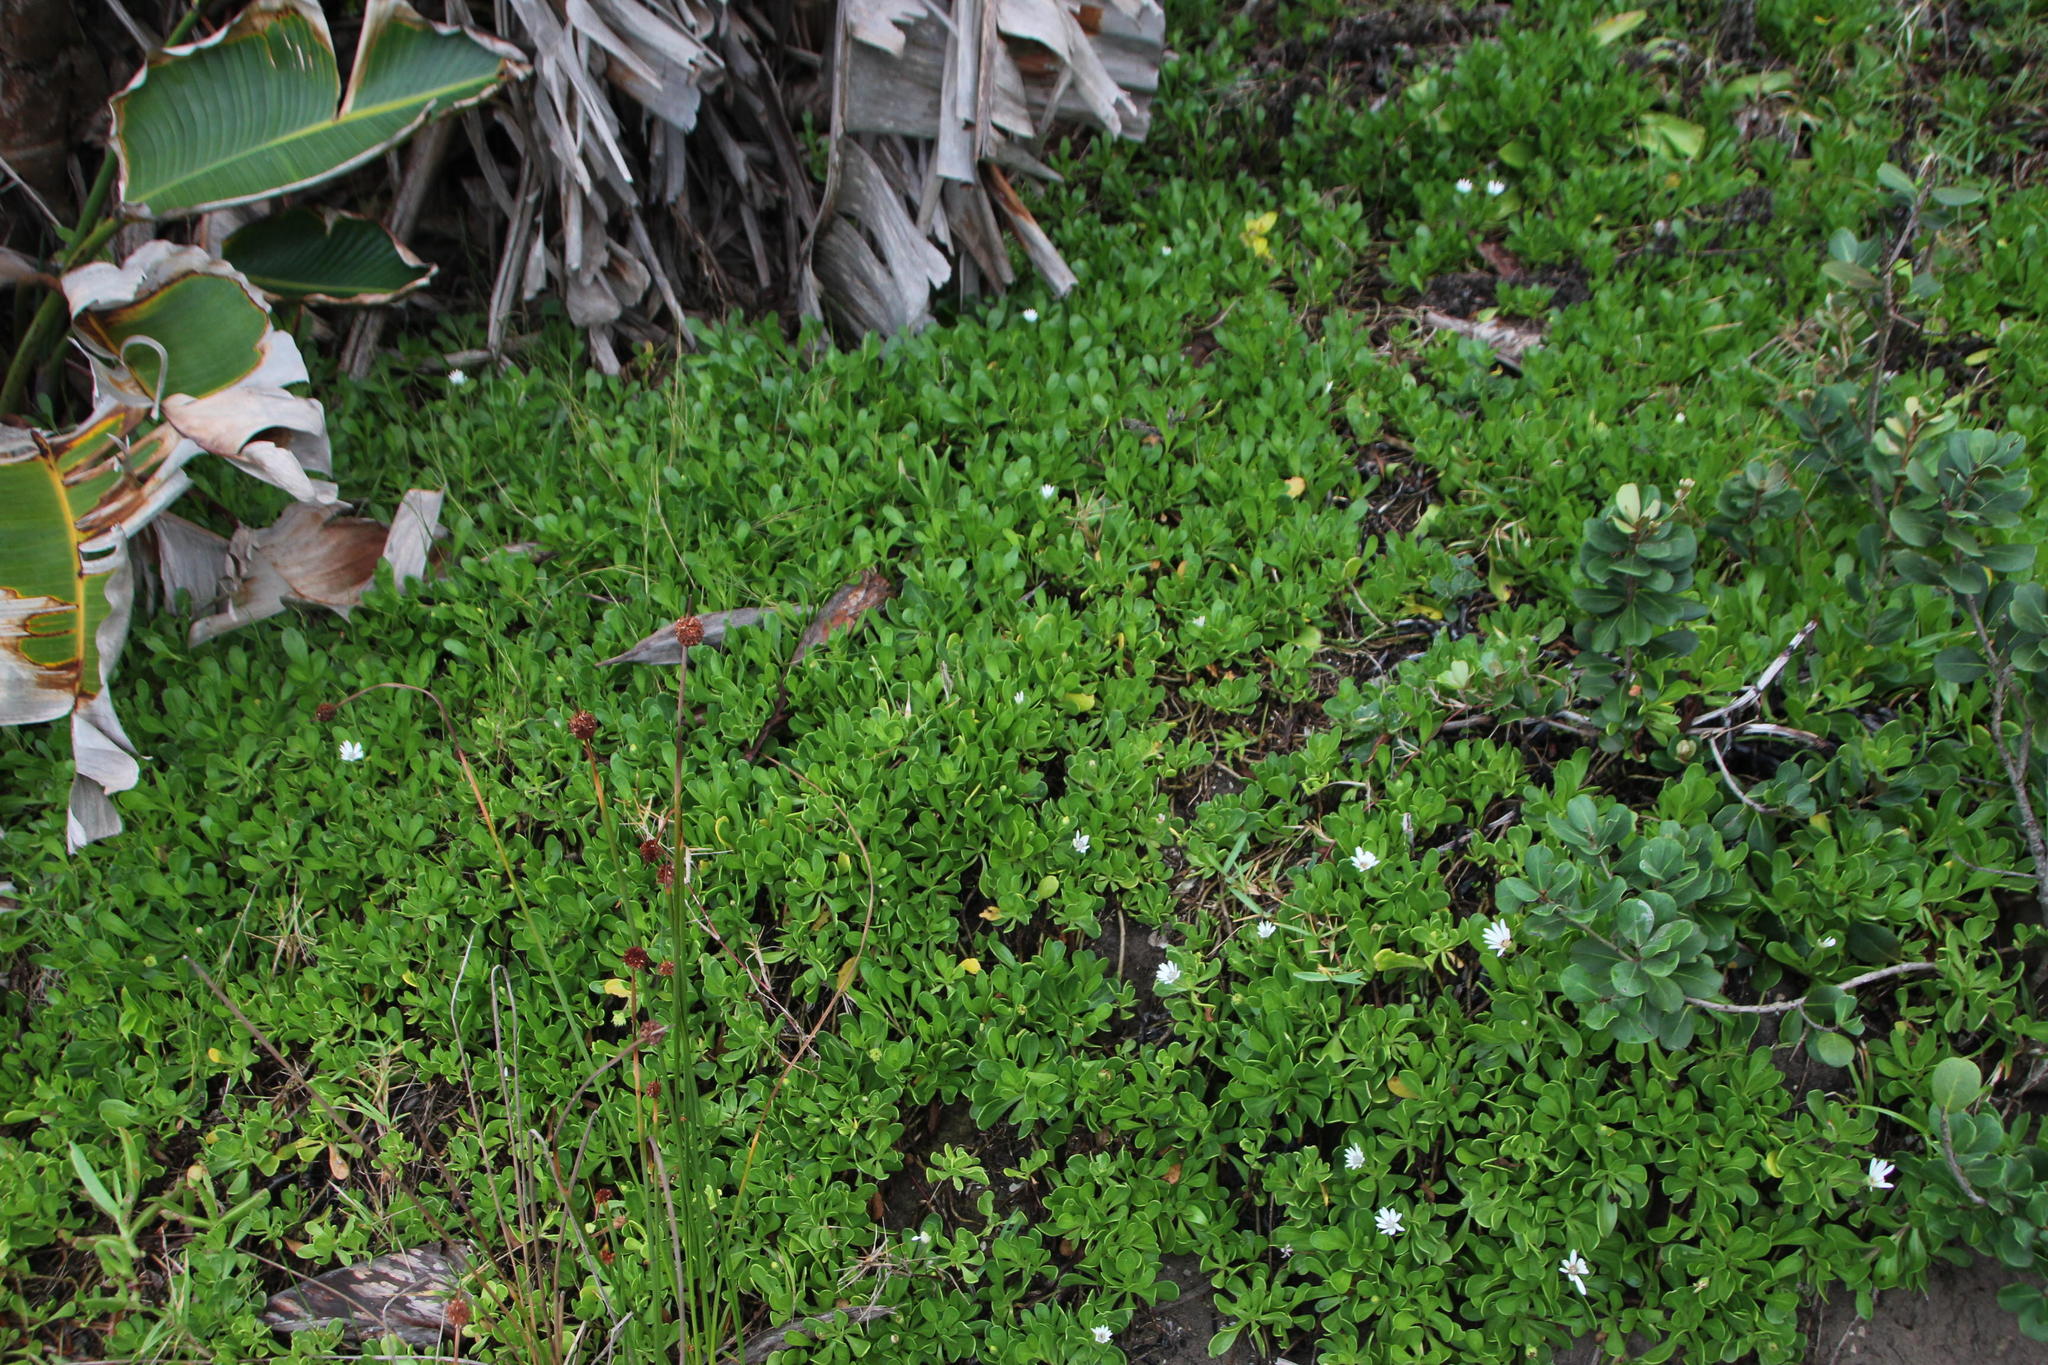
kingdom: Plantae
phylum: Tracheophyta
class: Magnoliopsida
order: Asterales
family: Asteraceae
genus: Dimorphotheca
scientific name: Dimorphotheca fruticosa
